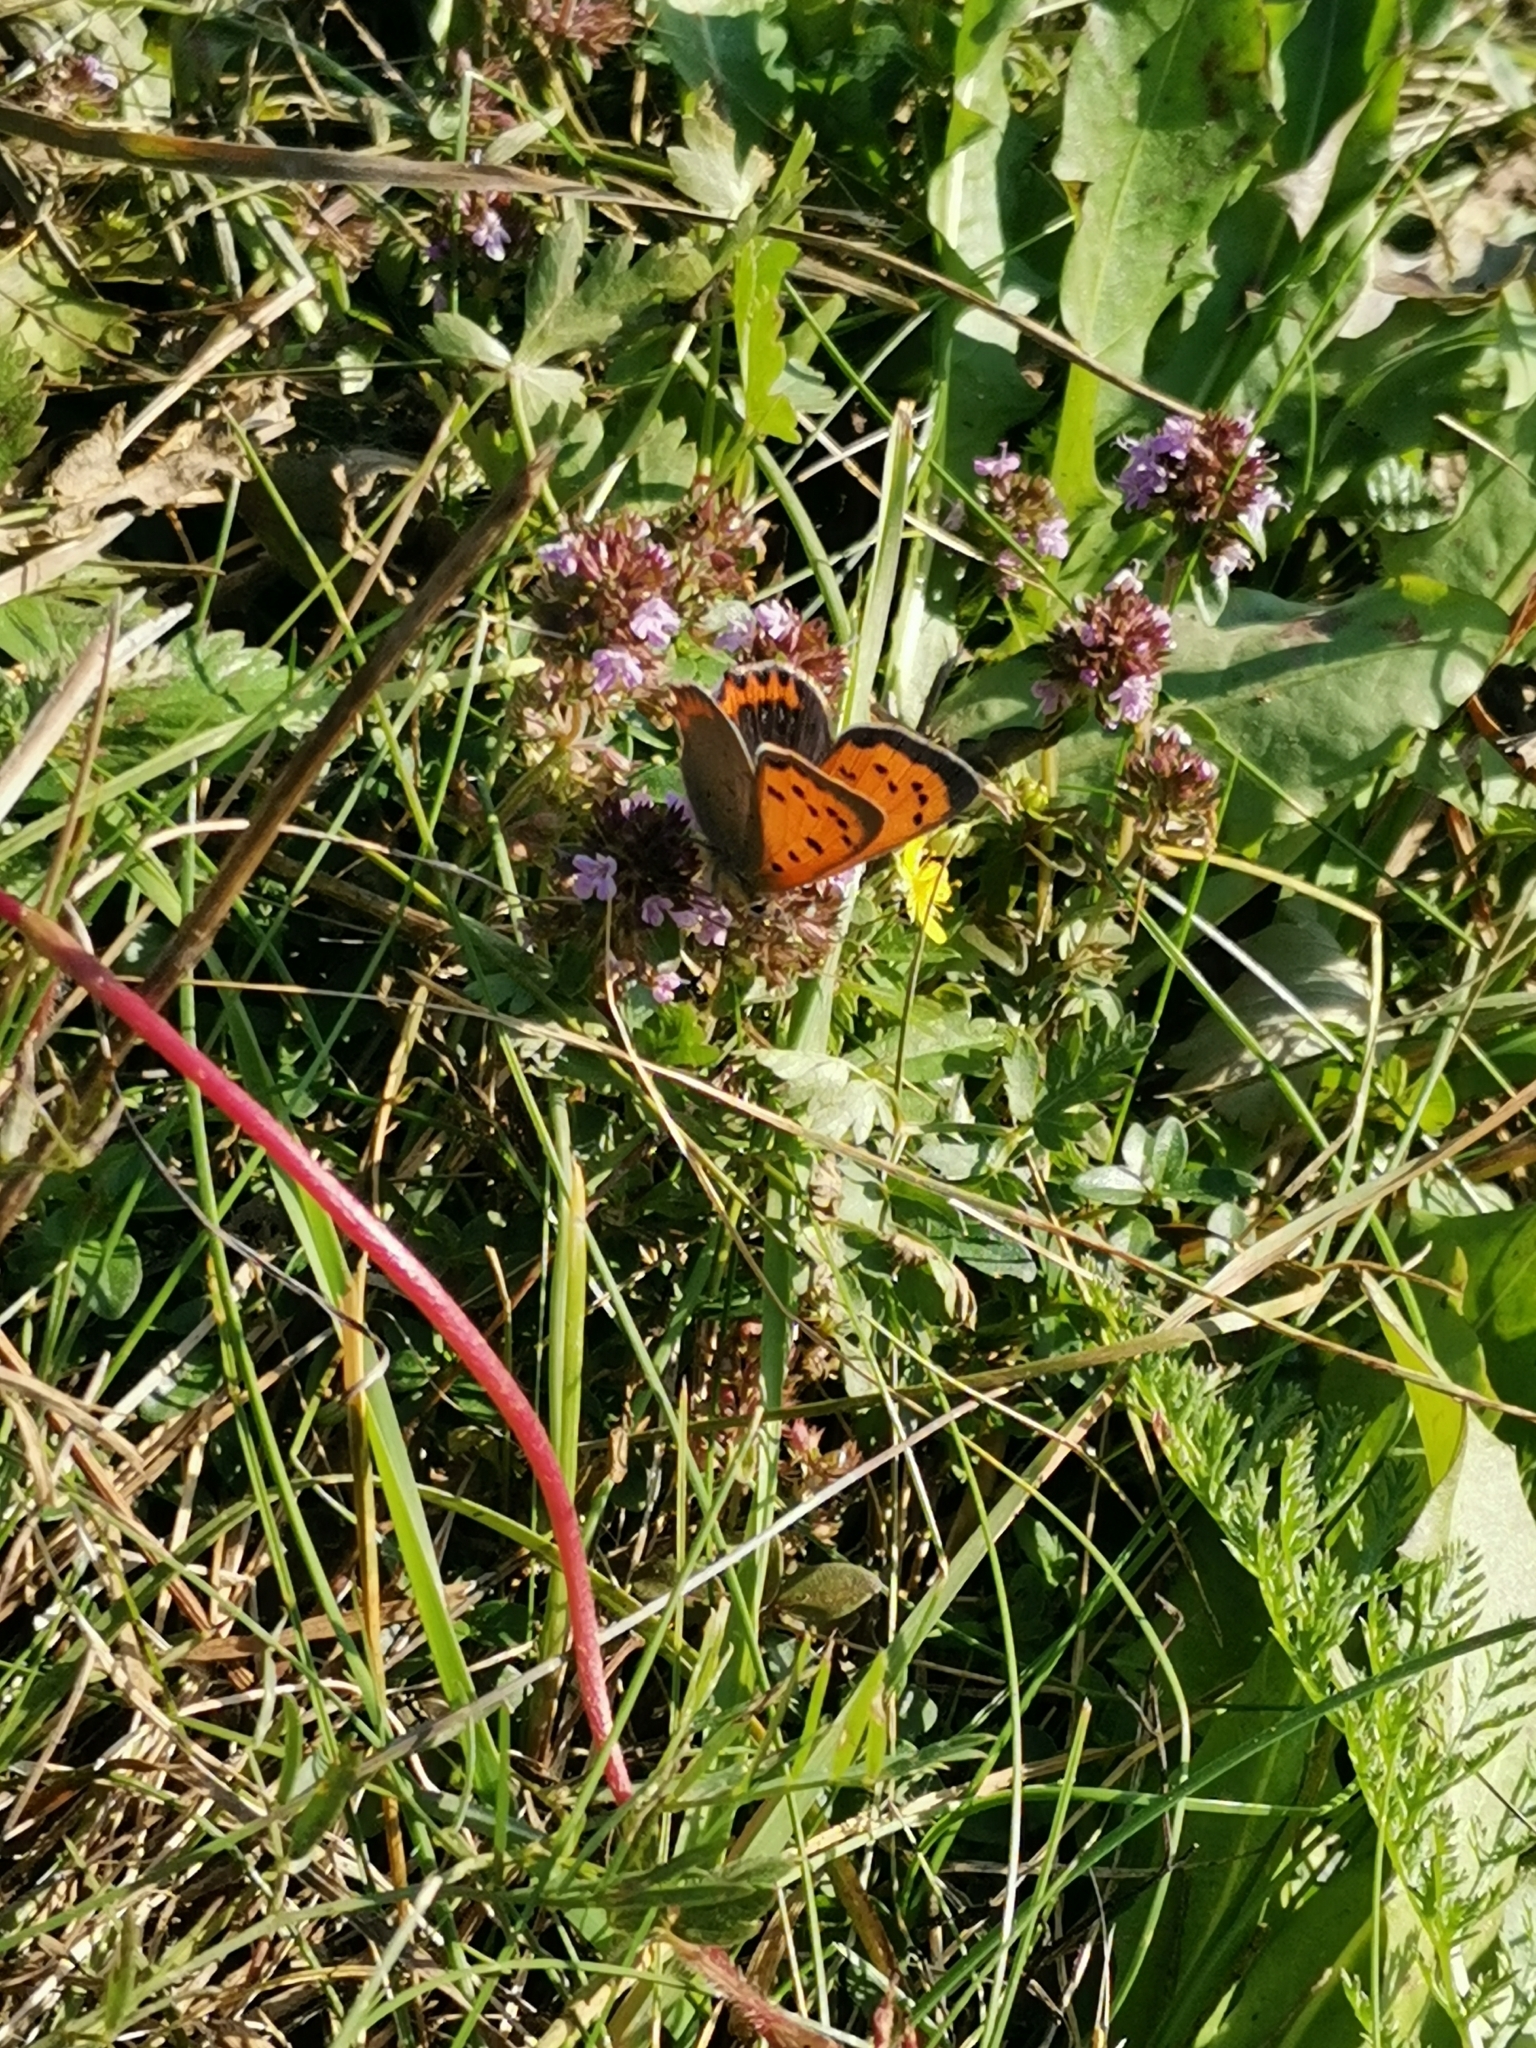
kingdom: Animalia
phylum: Arthropoda
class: Insecta
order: Lepidoptera
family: Lycaenidae
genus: Lycaena
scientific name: Lycaena phlaeas
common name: Small copper
